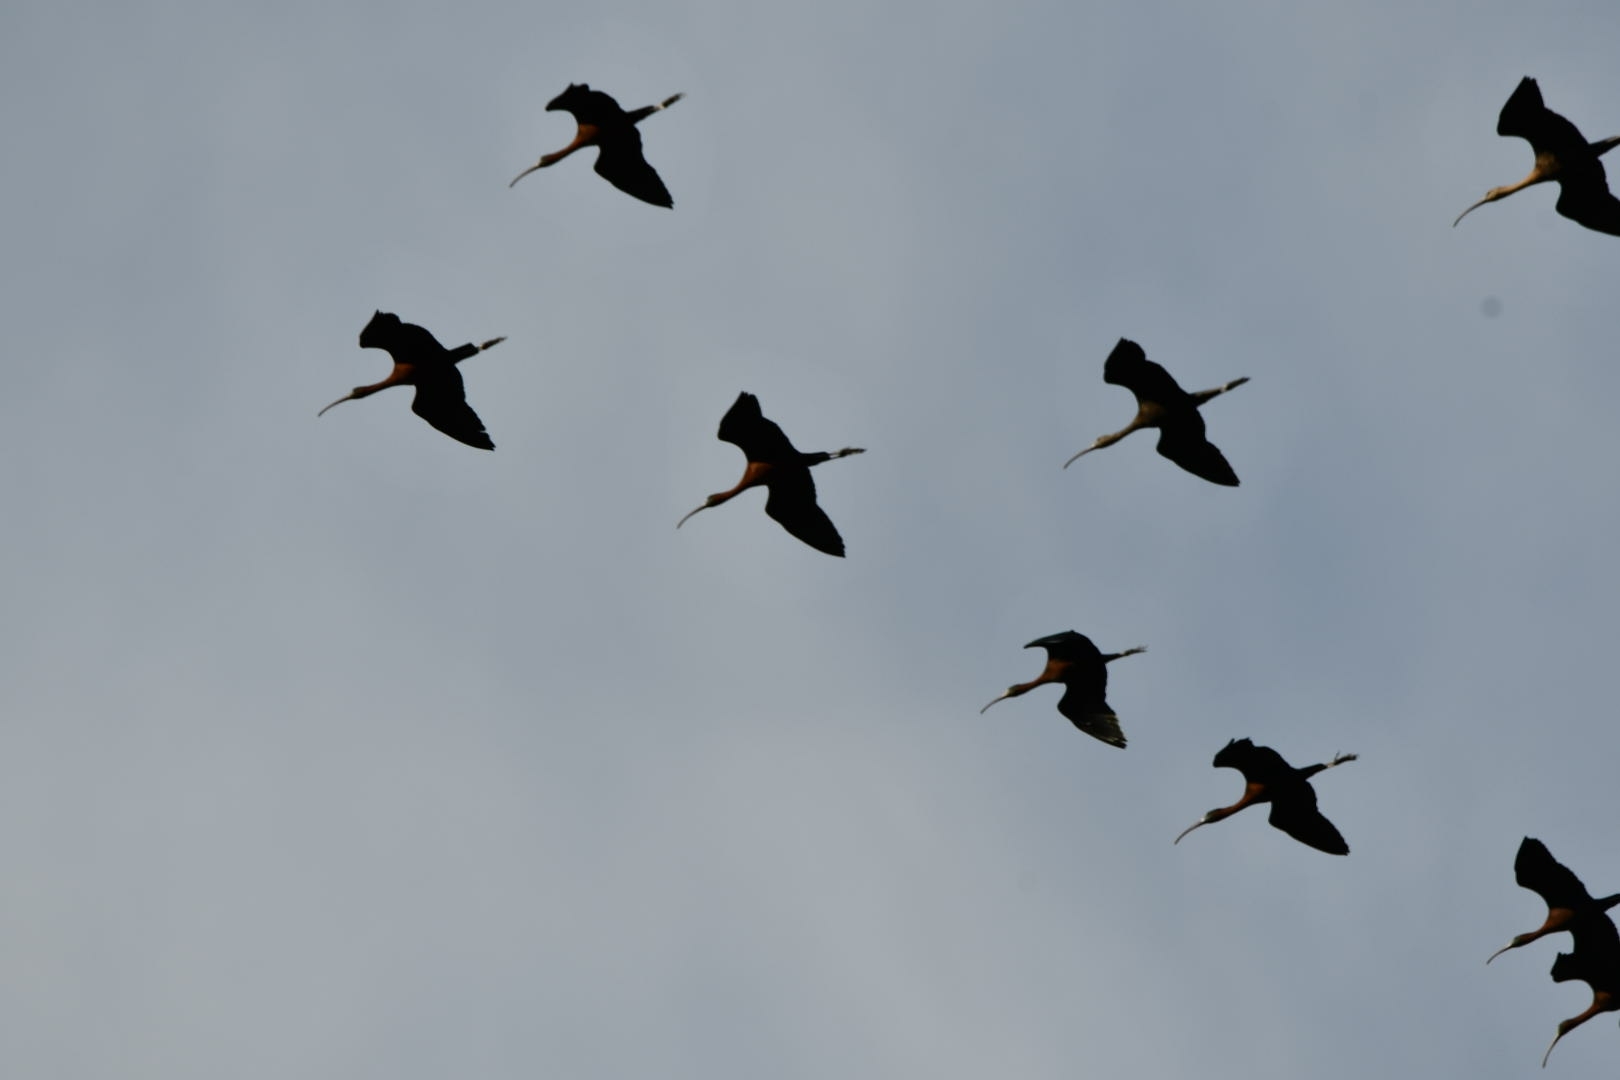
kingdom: Animalia
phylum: Chordata
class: Aves
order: Pelecaniformes
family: Threskiornithidae
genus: Plegadis
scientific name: Plegadis falcinellus
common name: Glossy ibis
